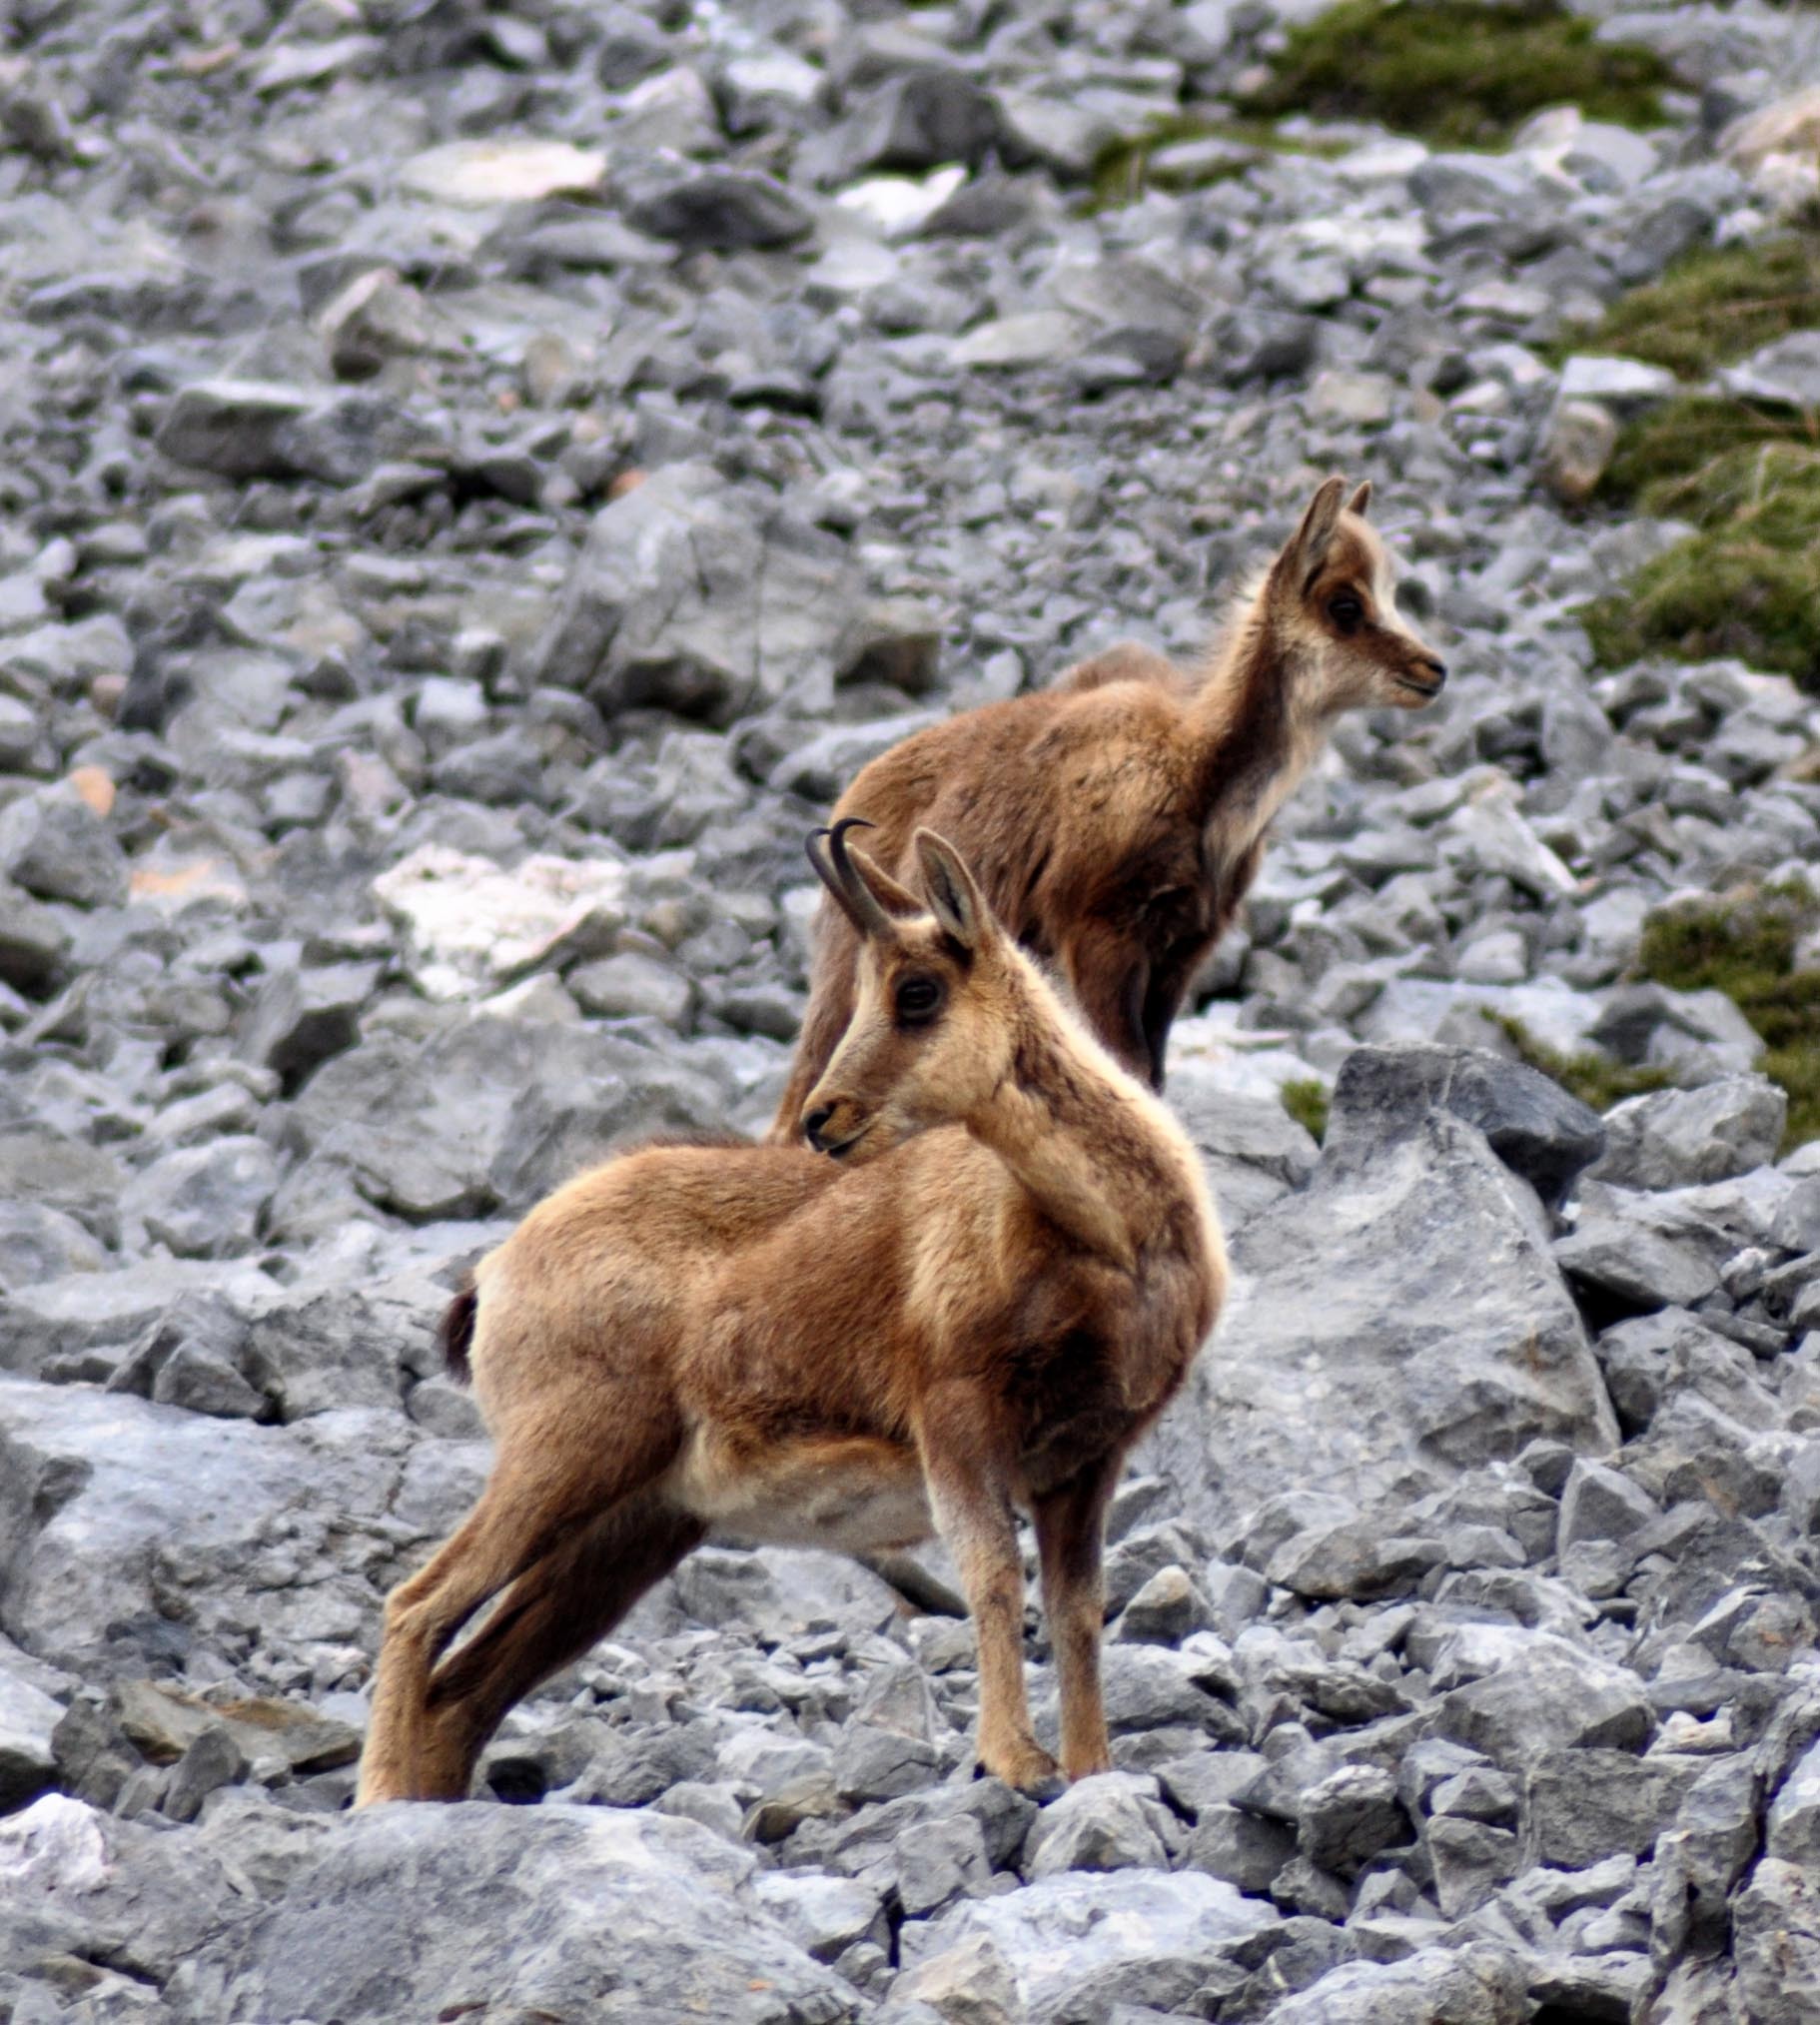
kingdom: Animalia
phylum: Chordata
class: Mammalia
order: Artiodactyla
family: Bovidae
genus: Rupicapra
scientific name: Rupicapra pyrenaica
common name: Pyrenean chamois
